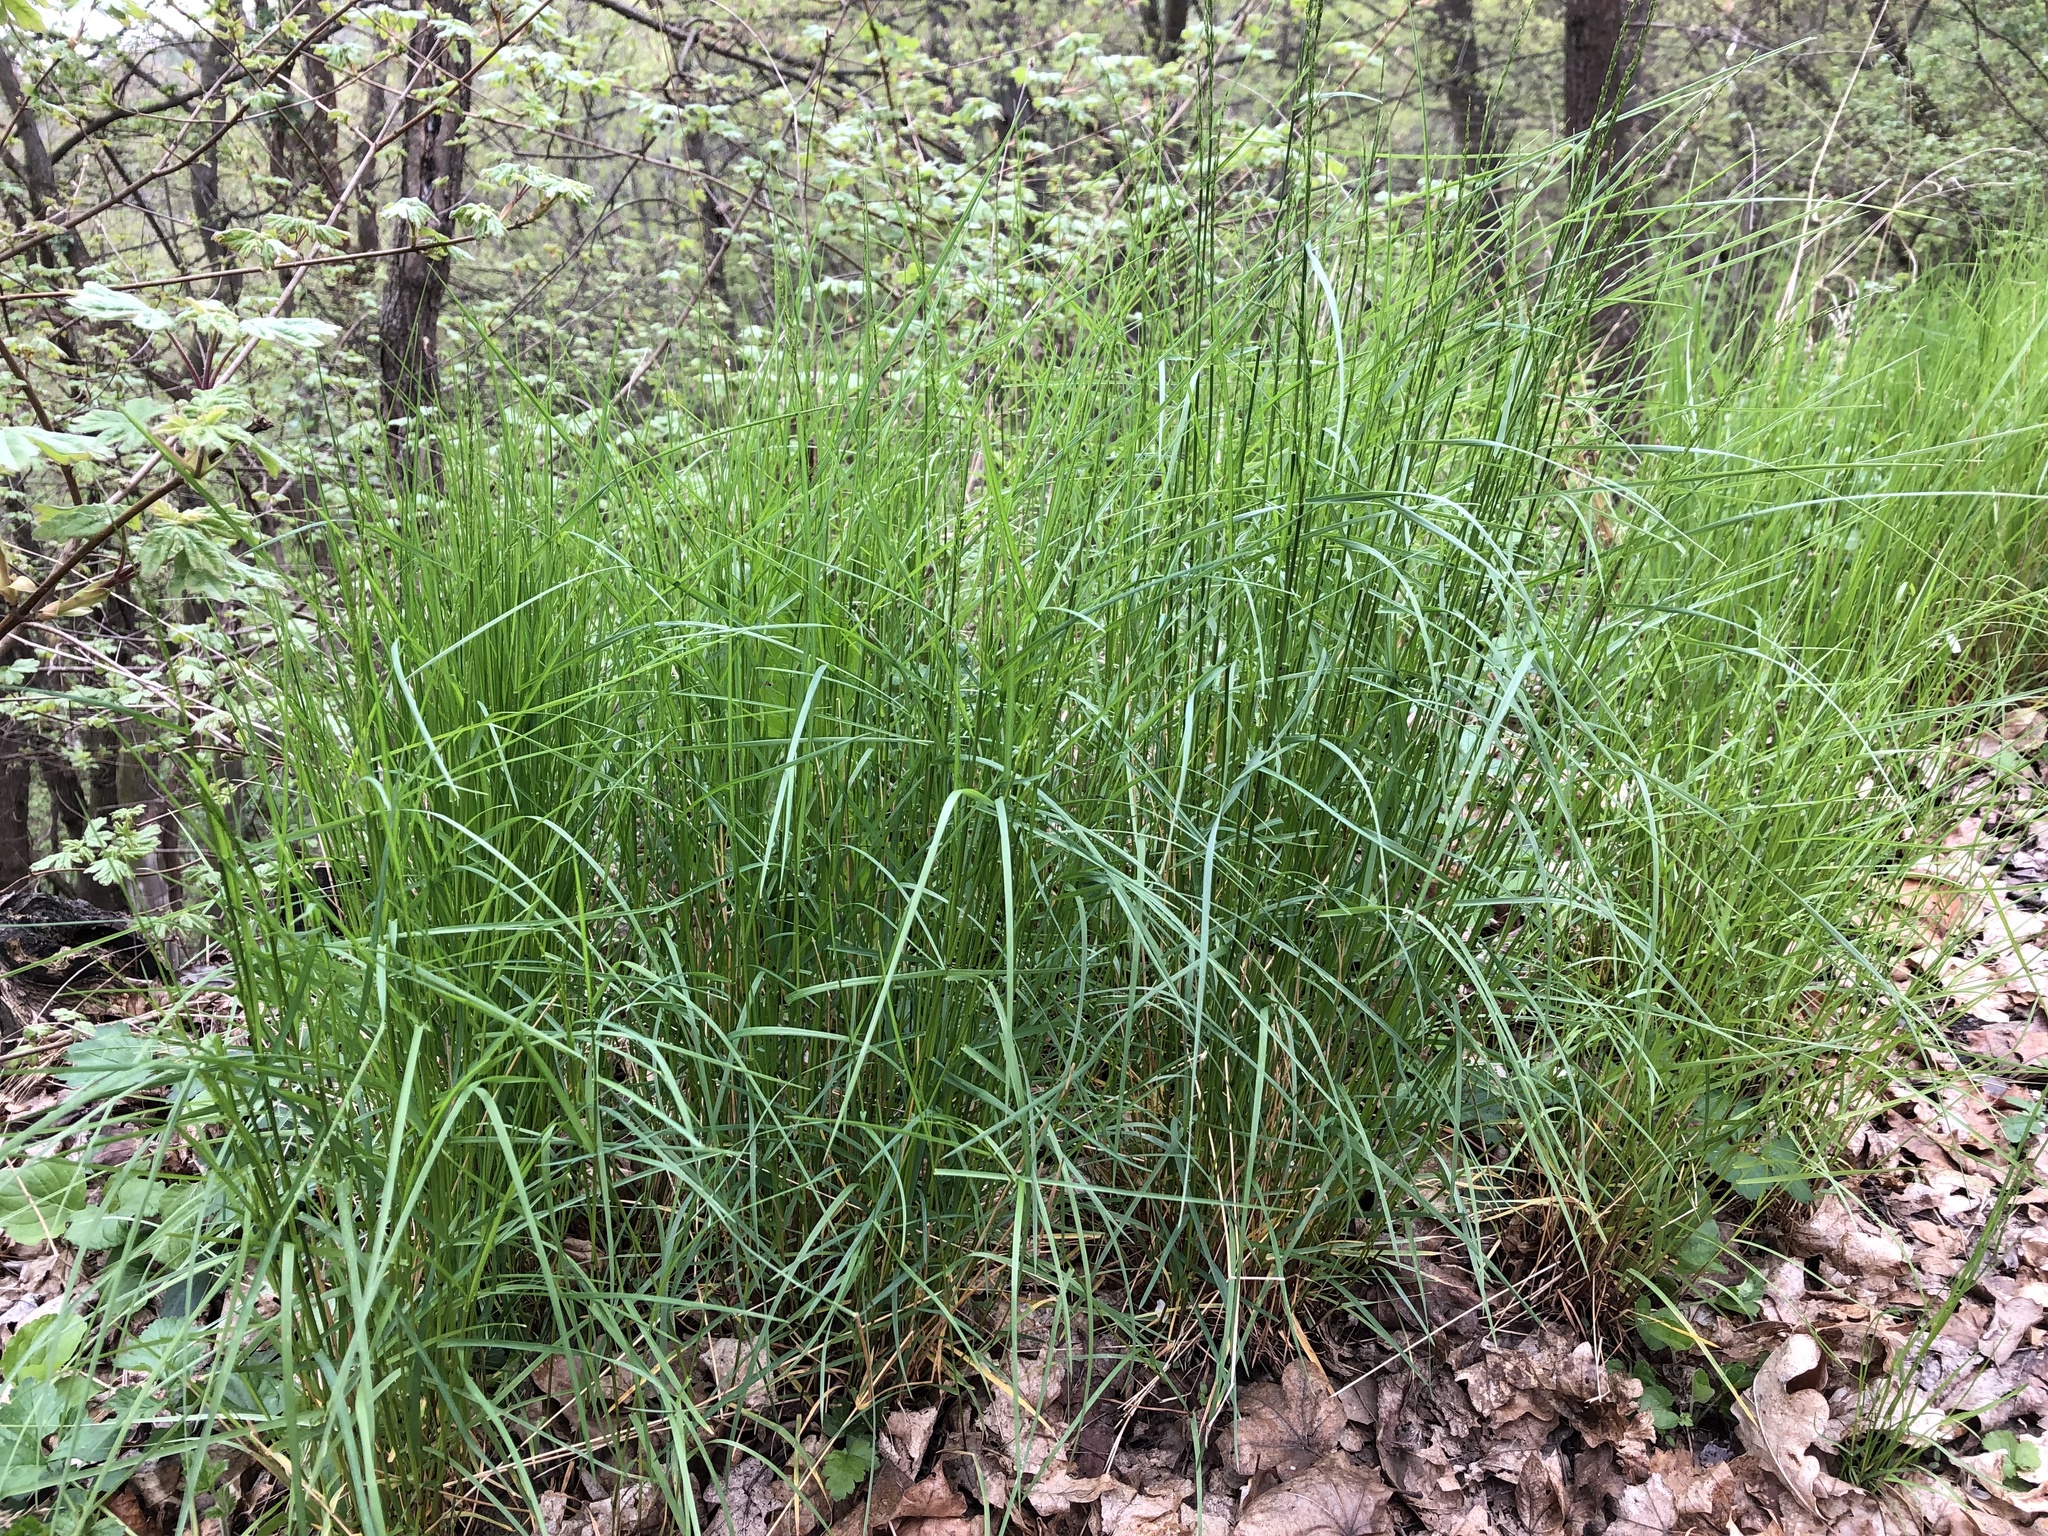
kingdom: Plantae
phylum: Tracheophyta
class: Liliopsida
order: Poales
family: Poaceae
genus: Poa
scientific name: Poa nemoralis
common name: Wood bluegrass
